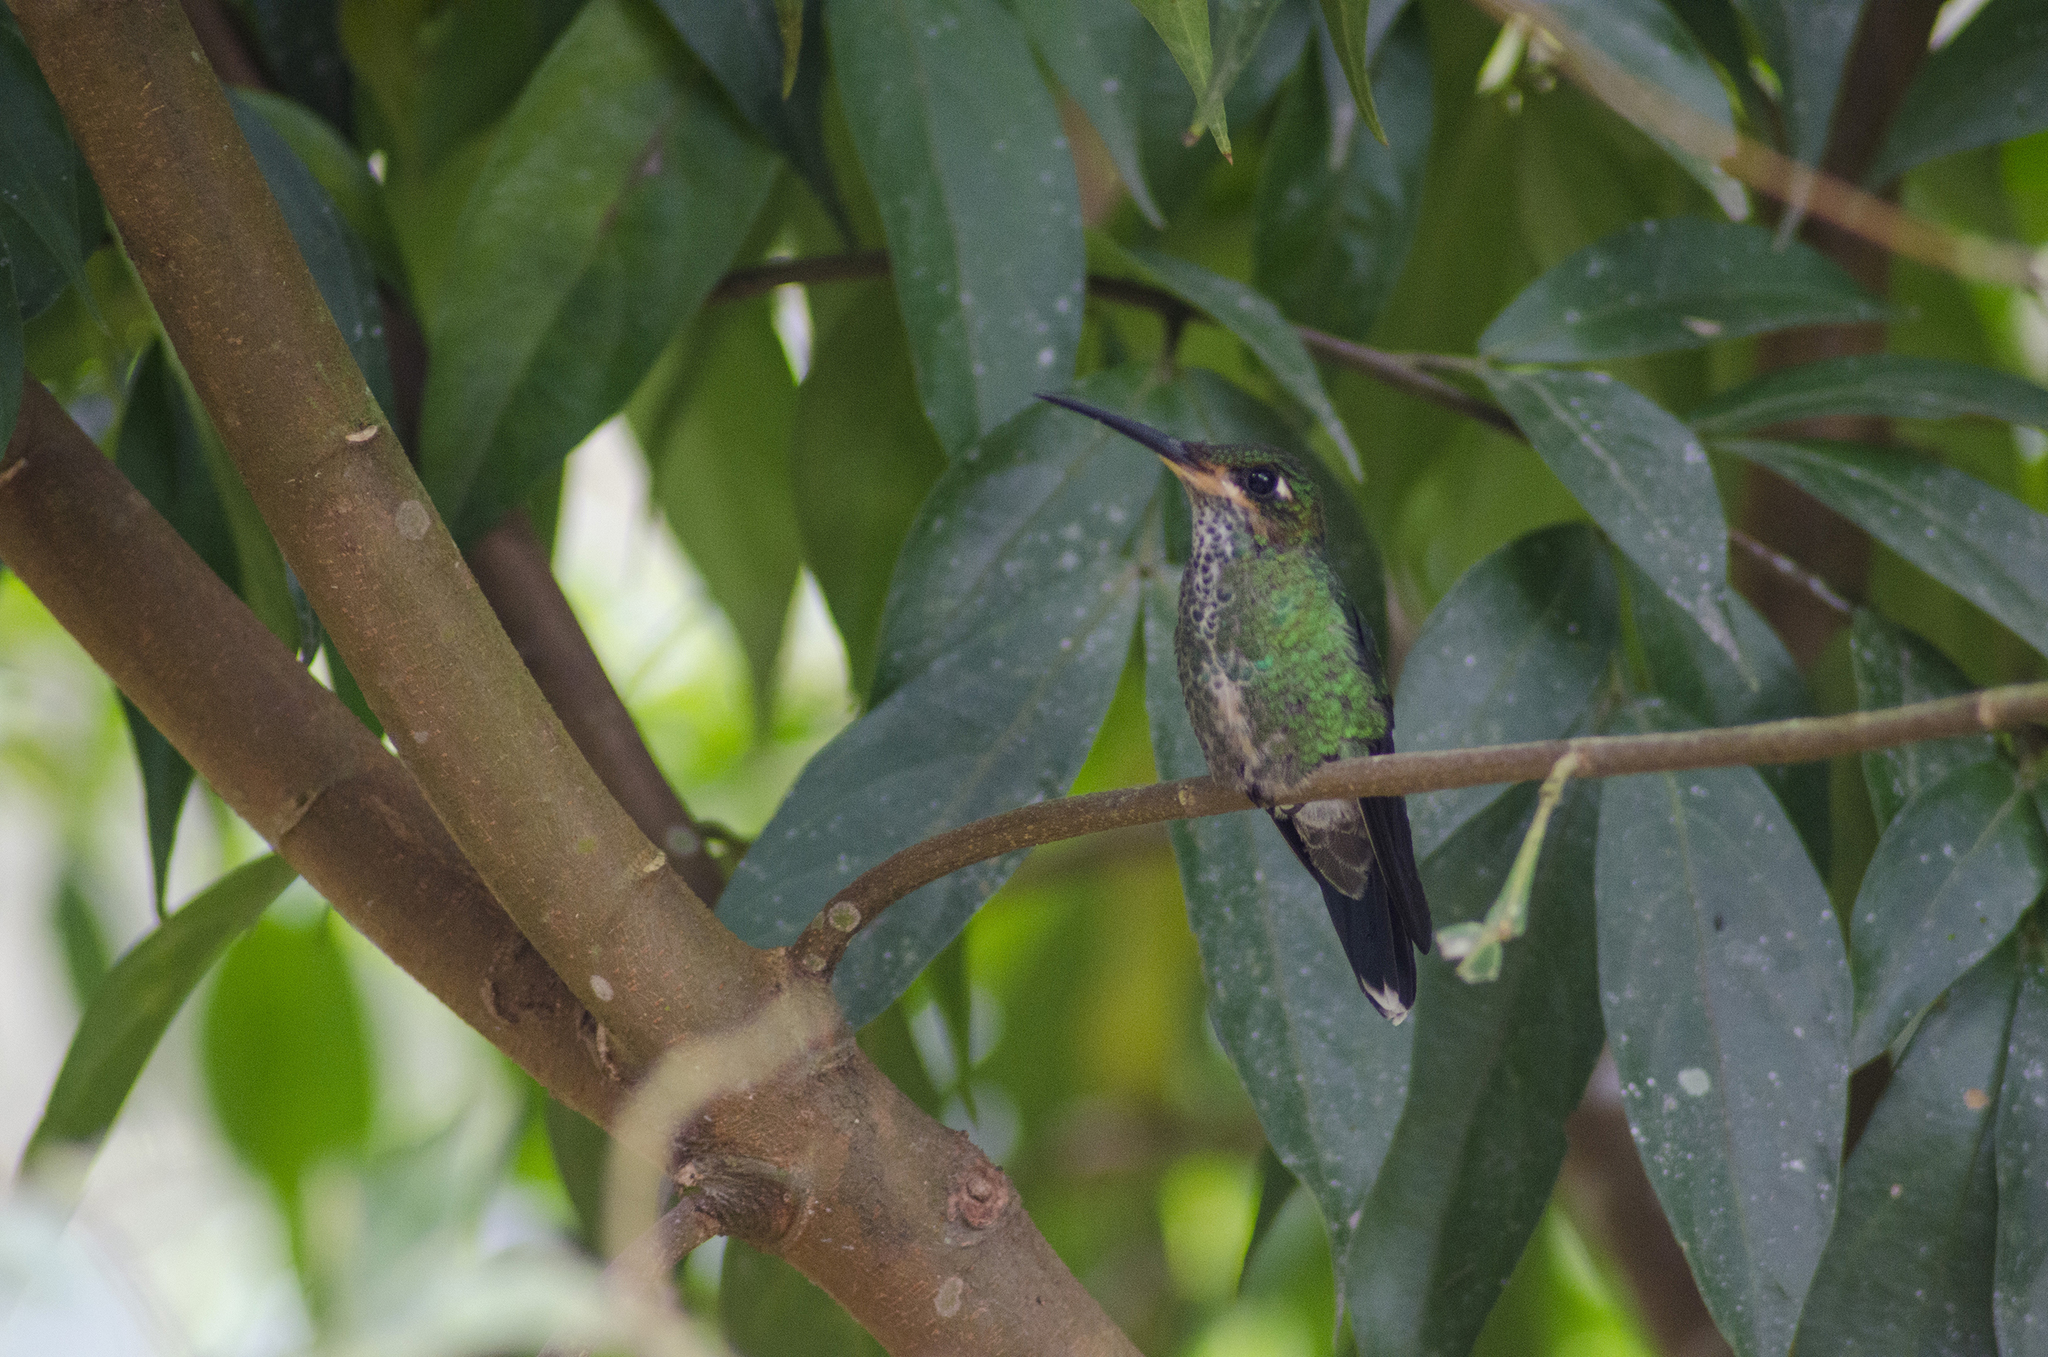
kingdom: Animalia
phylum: Chordata
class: Aves
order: Apodiformes
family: Trochilidae
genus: Heliodoxa
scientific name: Heliodoxa jacula
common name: Green-crowned brilliant
